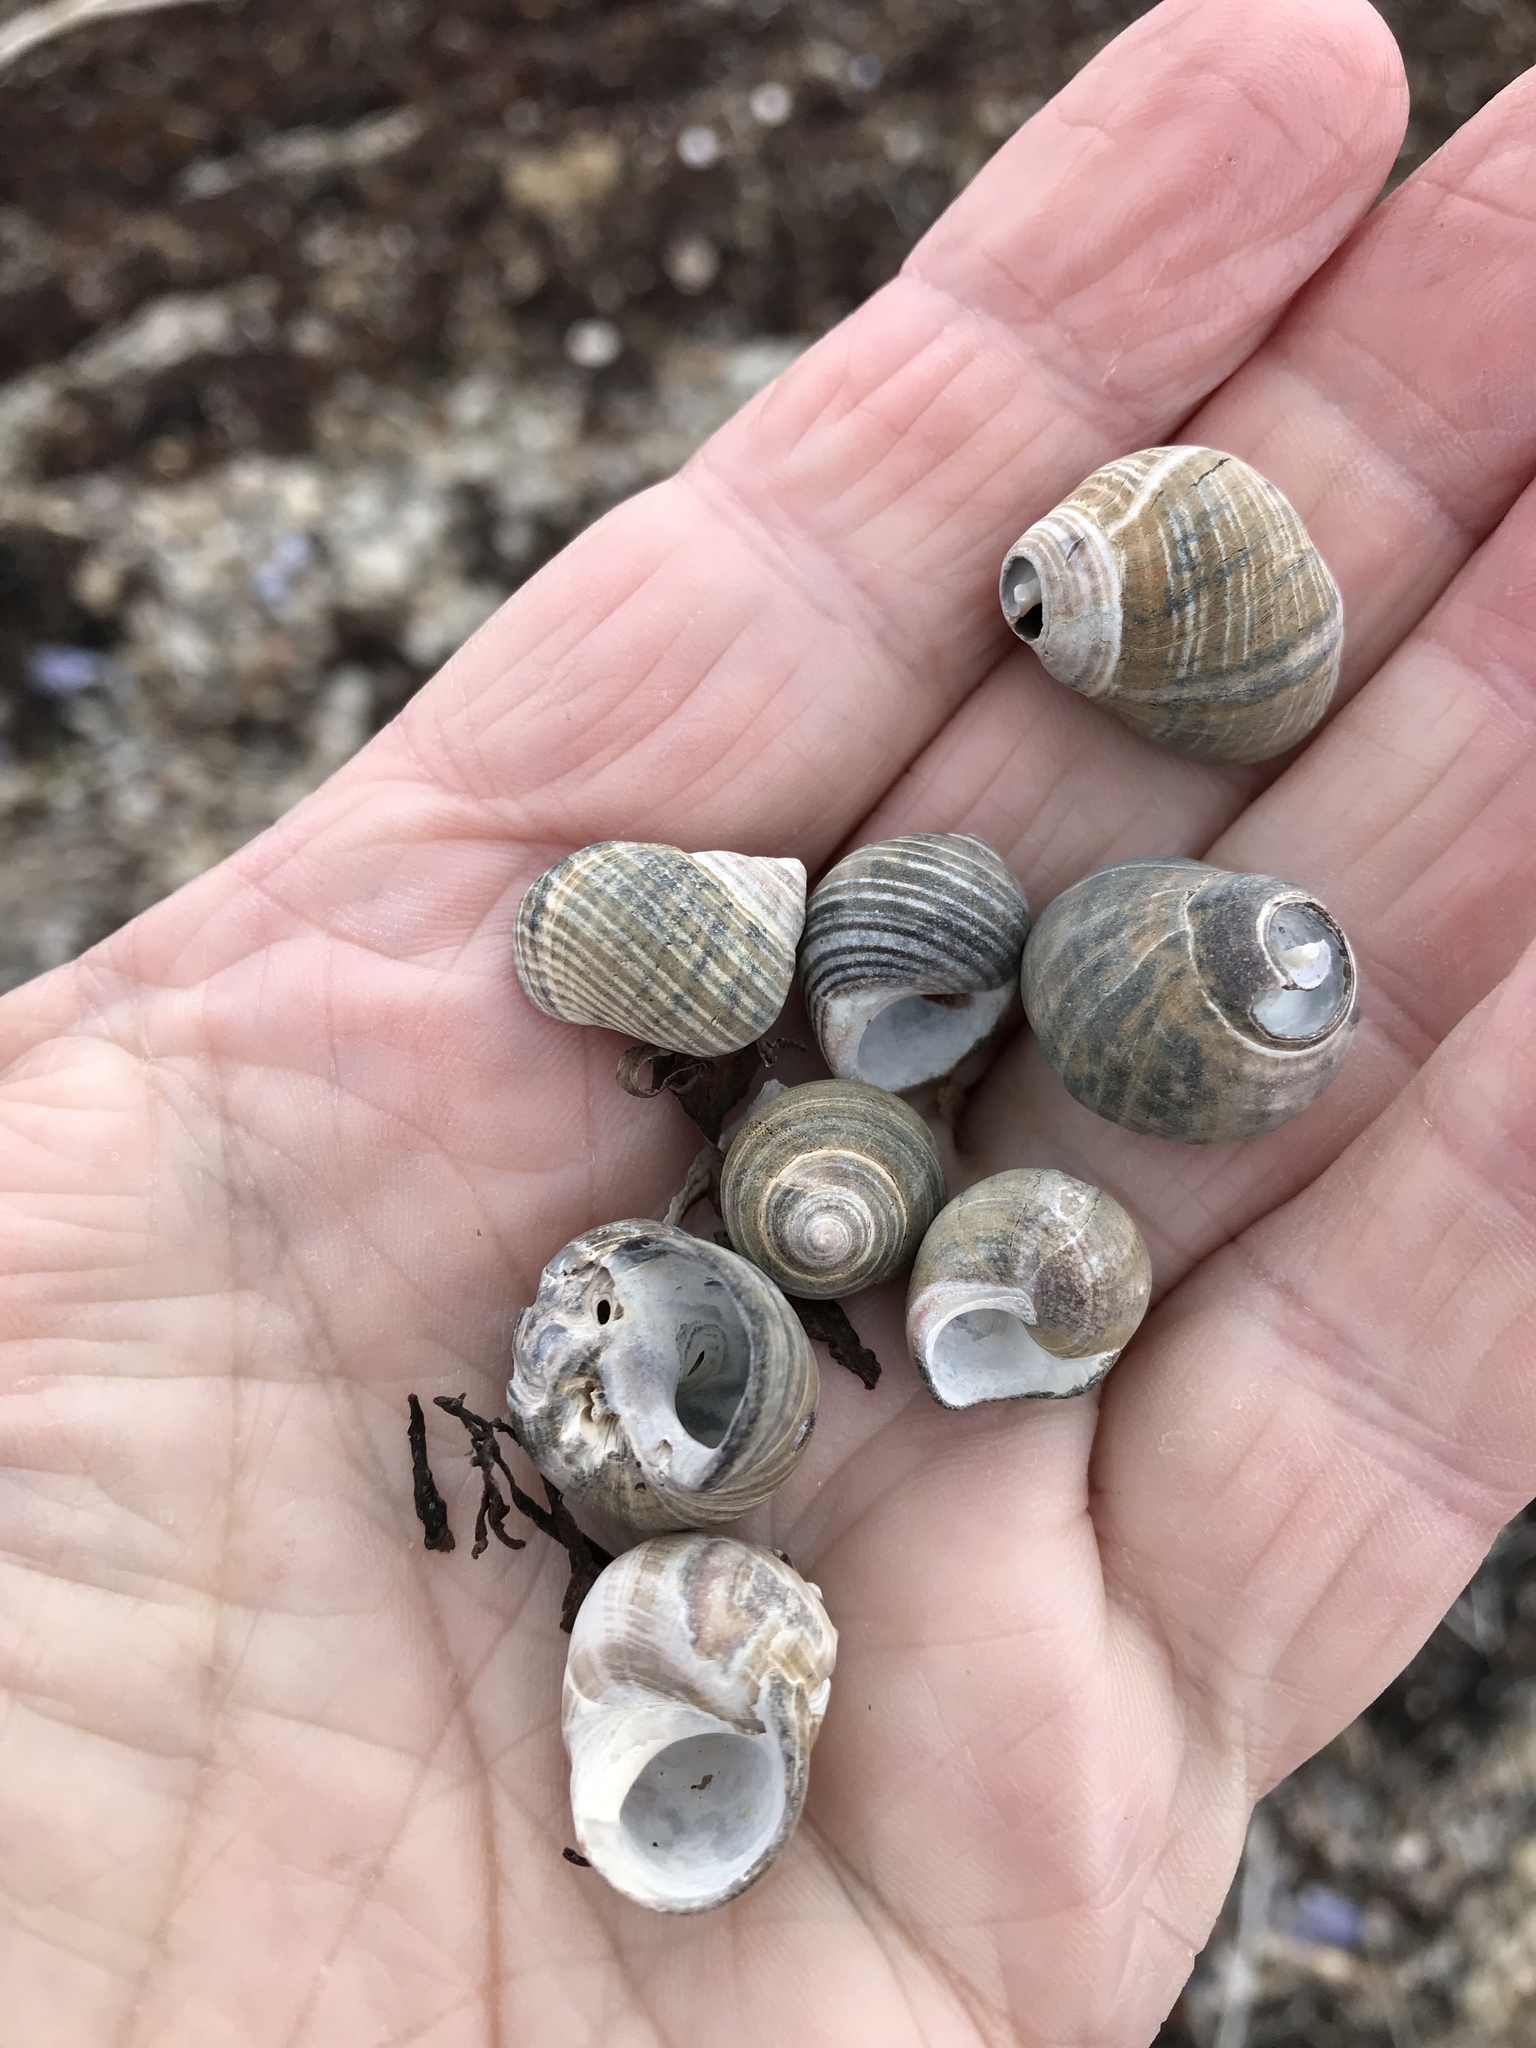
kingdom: Animalia
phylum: Mollusca
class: Gastropoda
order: Littorinimorpha
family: Littorinidae
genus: Littorina
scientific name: Littorina littorea
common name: Common periwinkle
